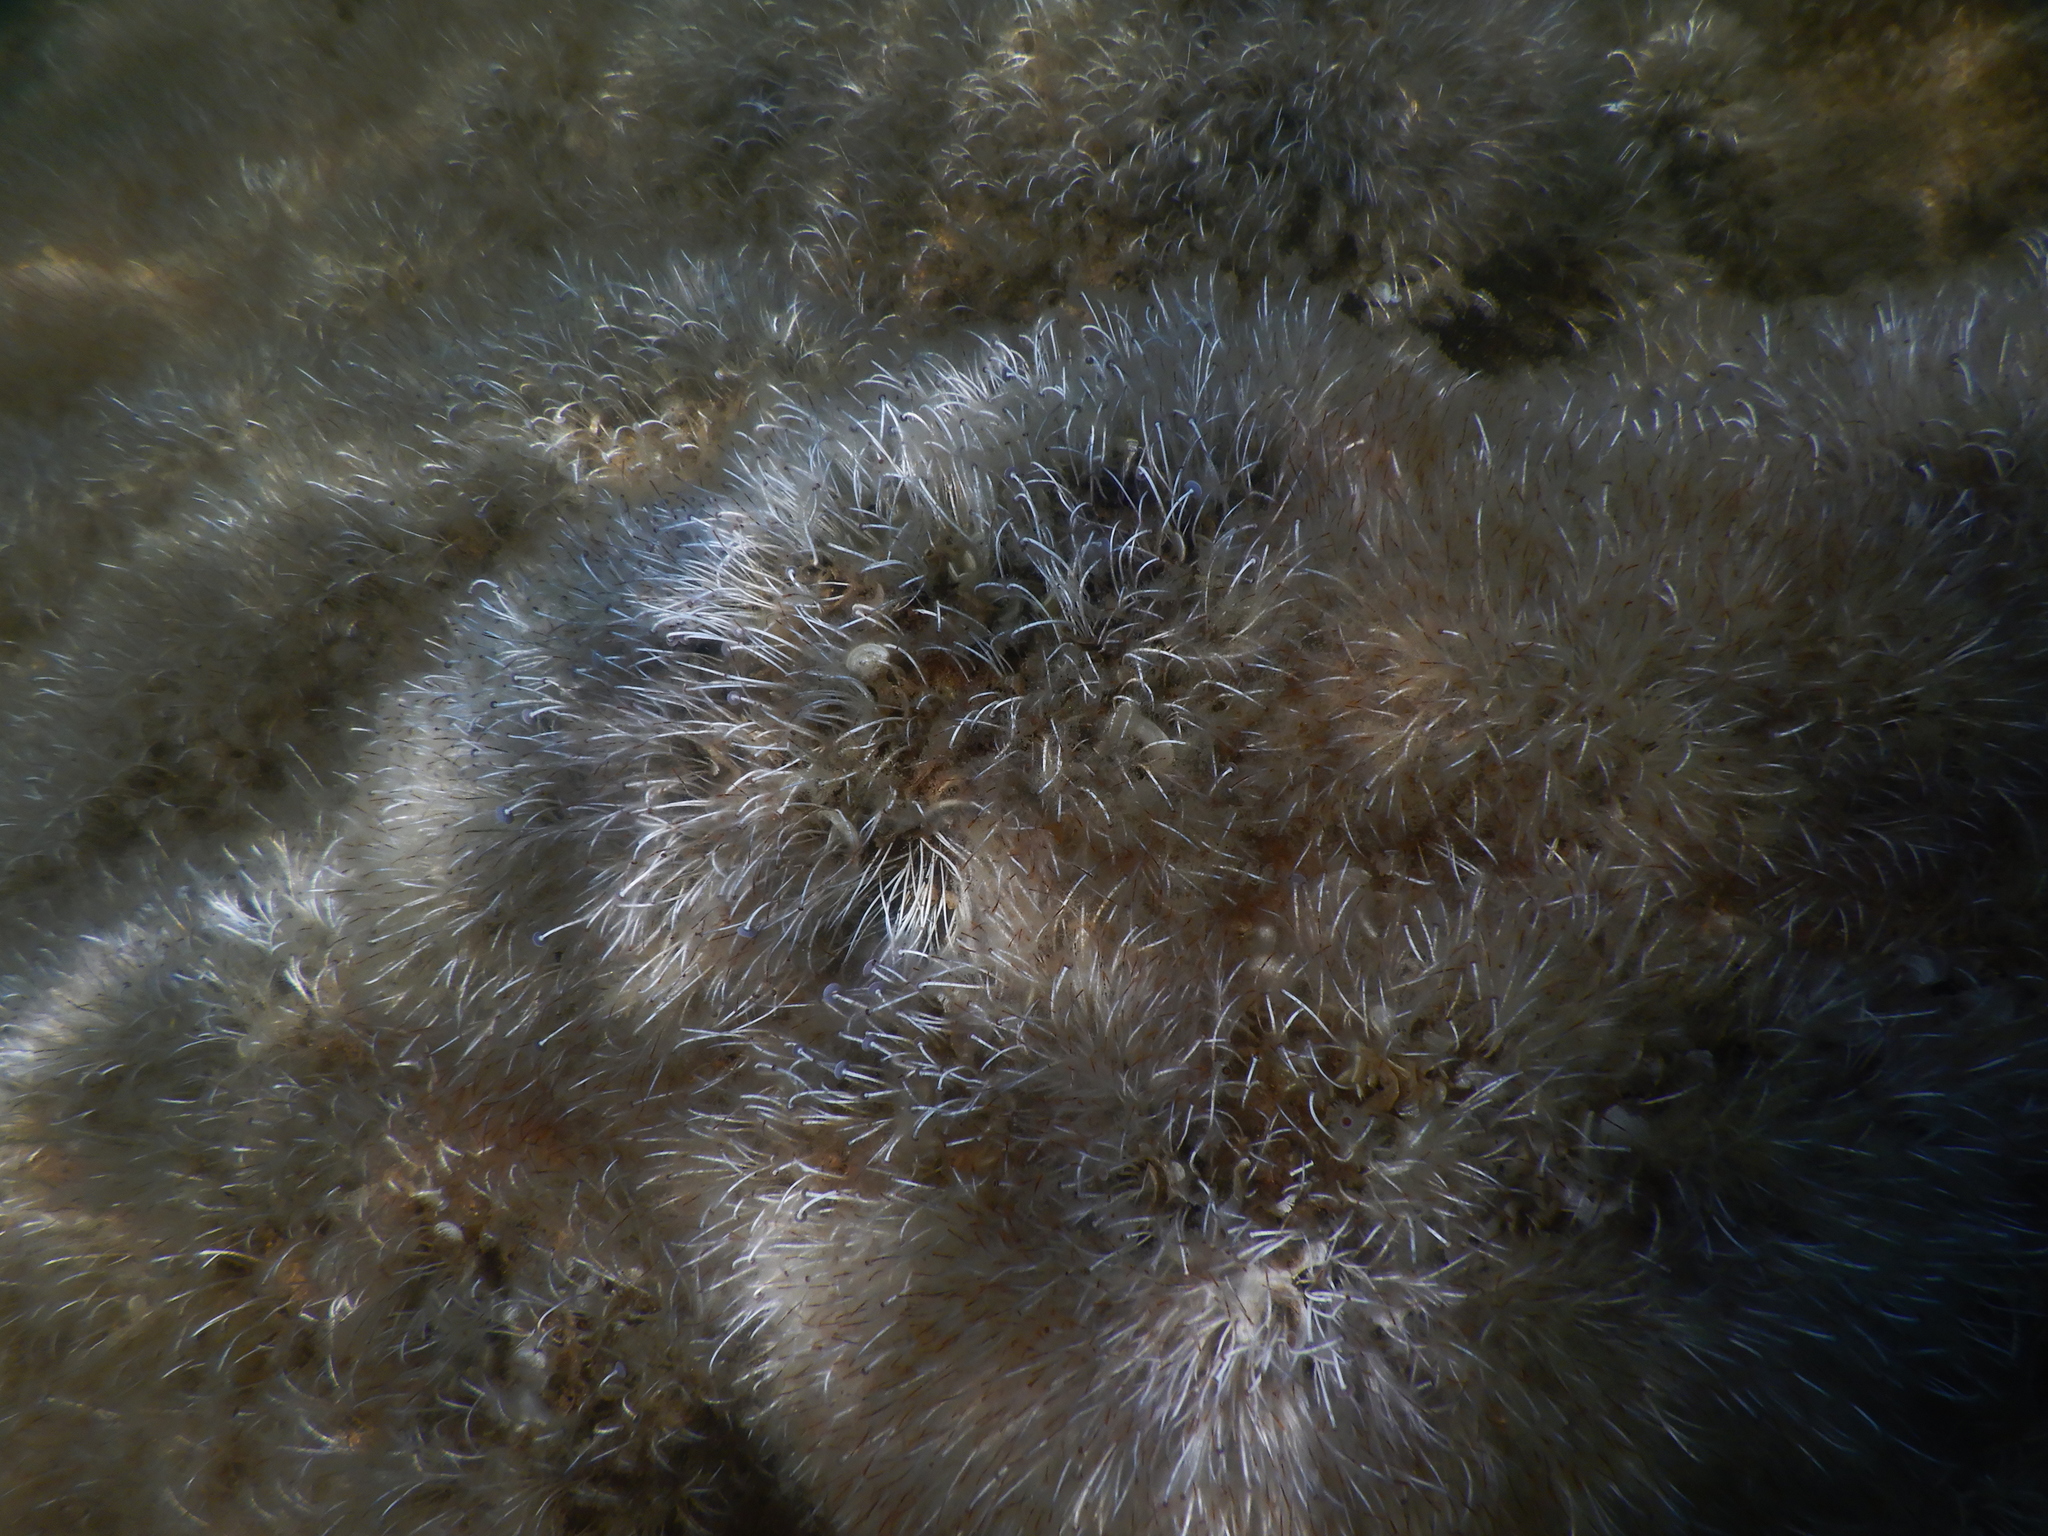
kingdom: Plantae
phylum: Chlorophyta
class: Ulvophyceae
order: Dasycladales
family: Polyphysaceae
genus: Acetabularia
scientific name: Acetabularia acetabulum
